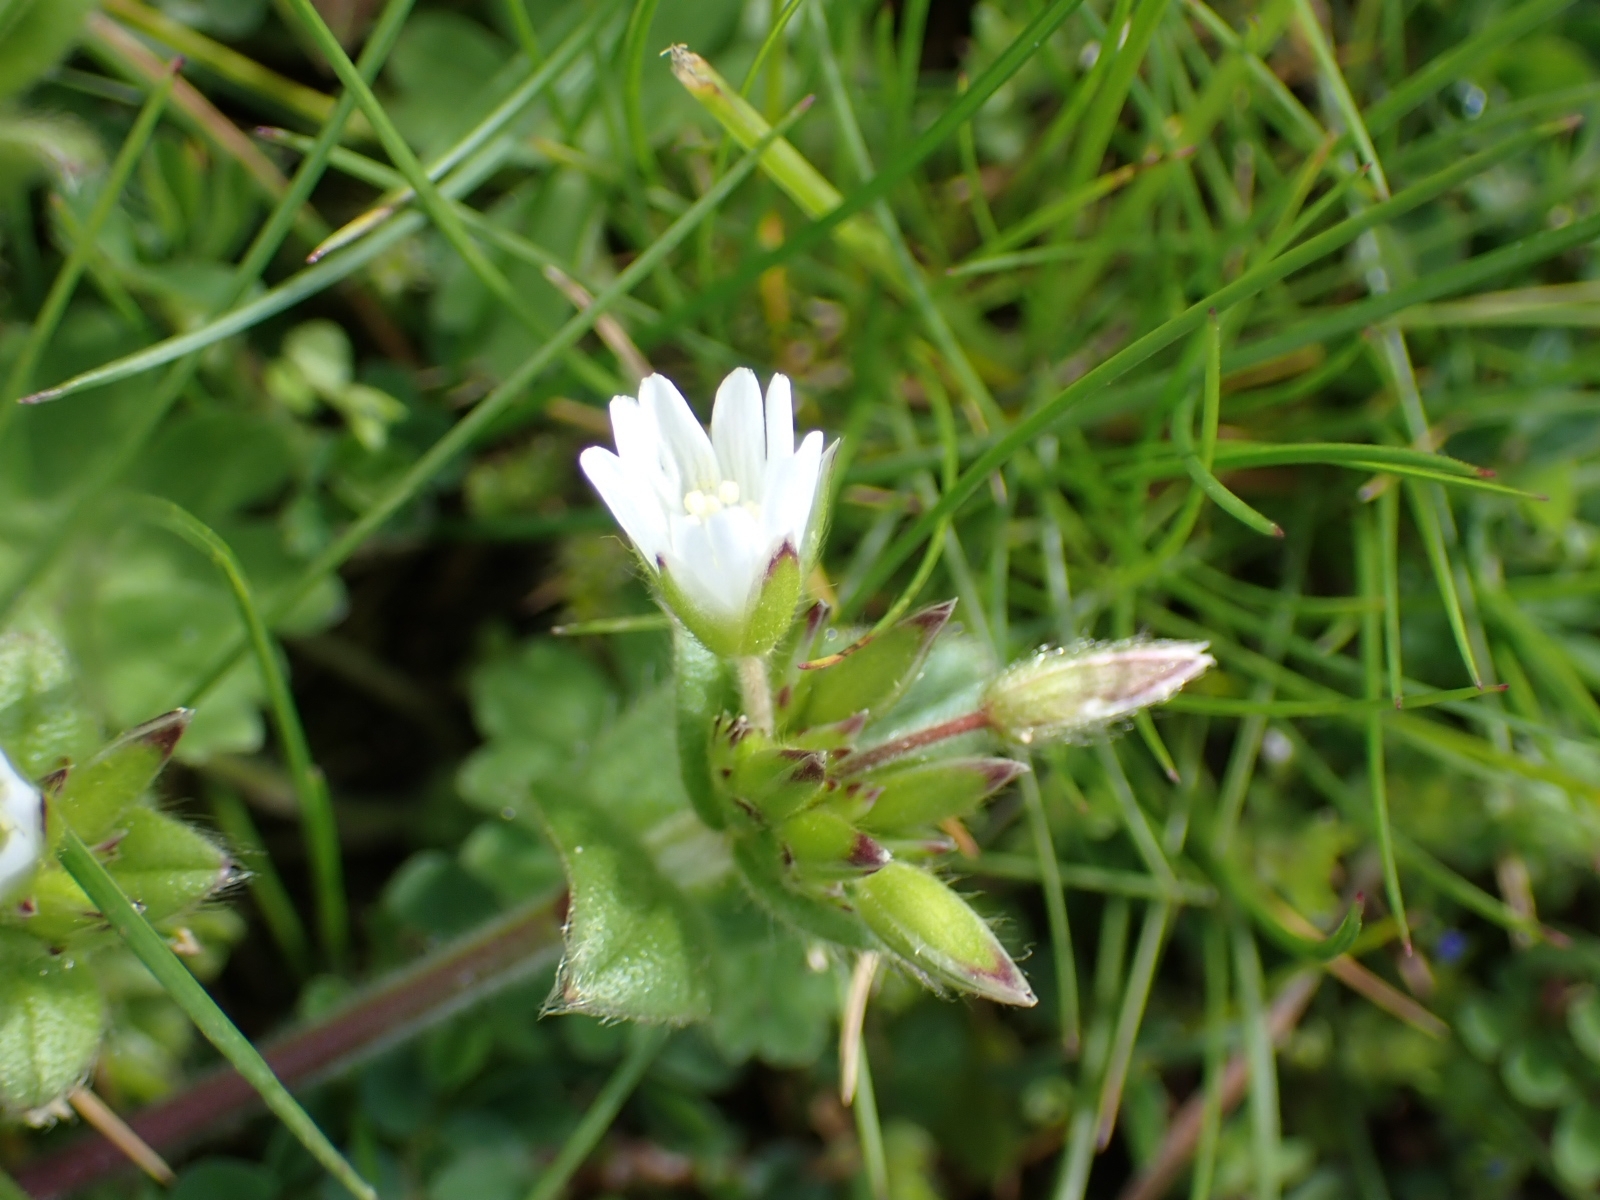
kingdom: Plantae
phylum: Tracheophyta
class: Magnoliopsida
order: Caryophyllales
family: Caryophyllaceae
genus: Cerastium
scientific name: Cerastium glomeratum
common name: Sticky chickweed
